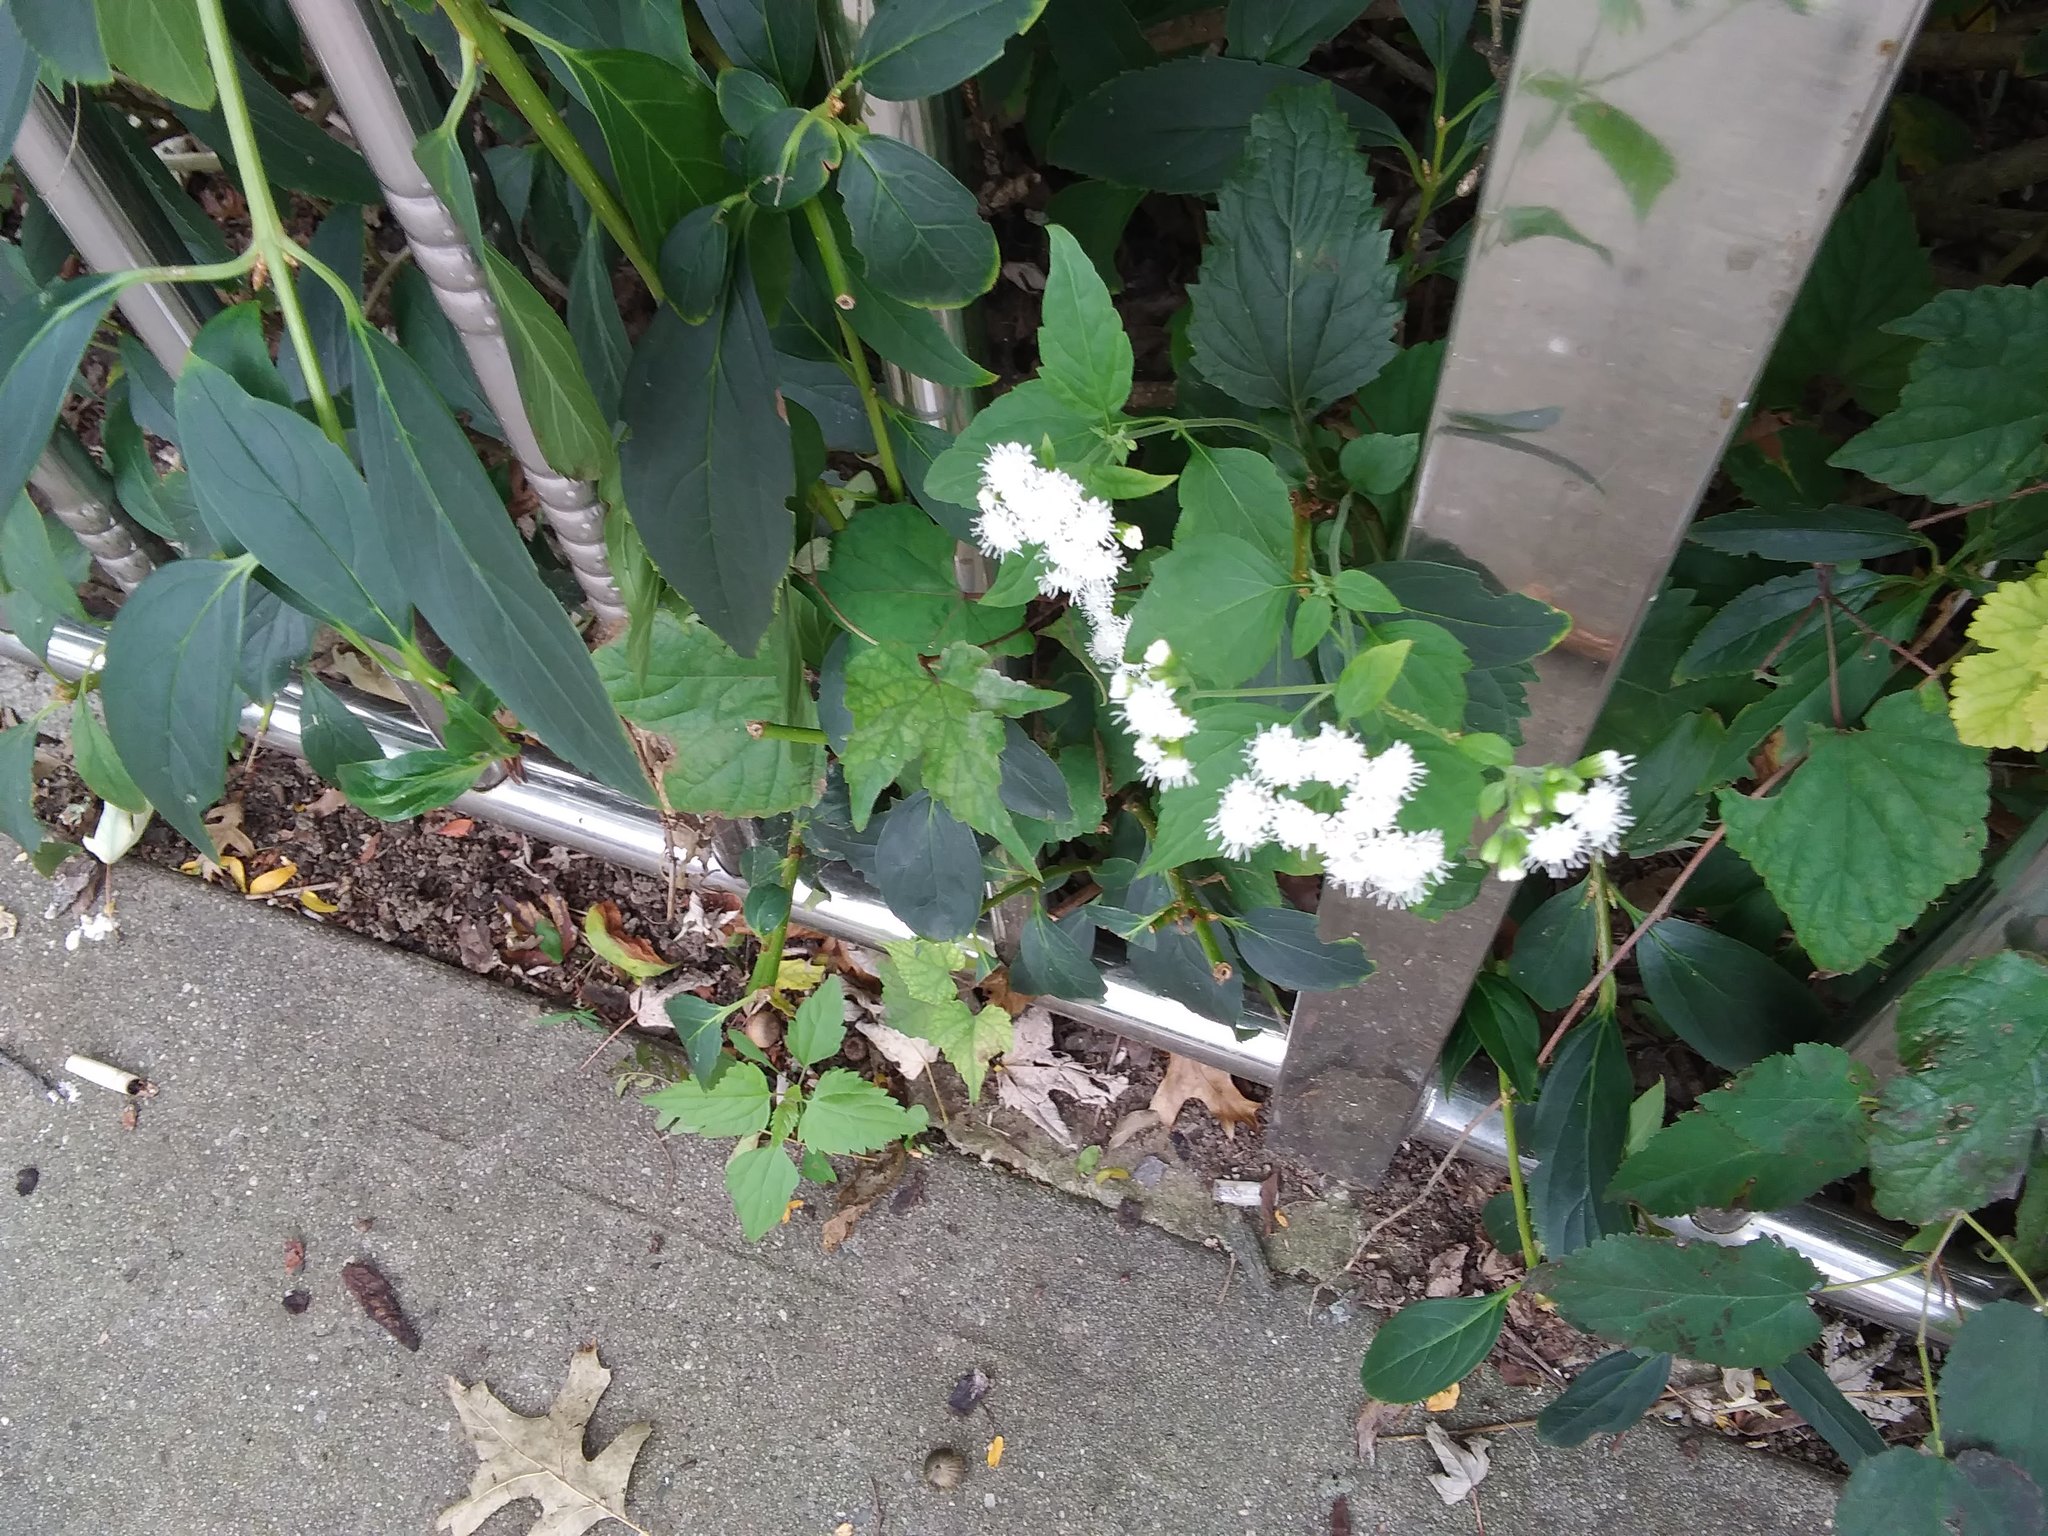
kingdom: Plantae
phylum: Tracheophyta
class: Magnoliopsida
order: Asterales
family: Asteraceae
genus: Ageratina
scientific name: Ageratina altissima
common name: White snakeroot
